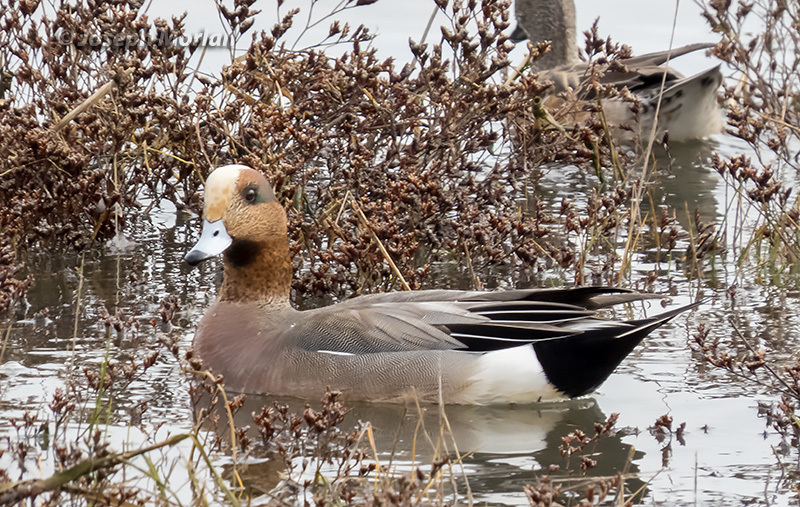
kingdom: Animalia
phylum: Chordata
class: Aves
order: Anseriformes
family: Anatidae
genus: Mareca
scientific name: Mareca
